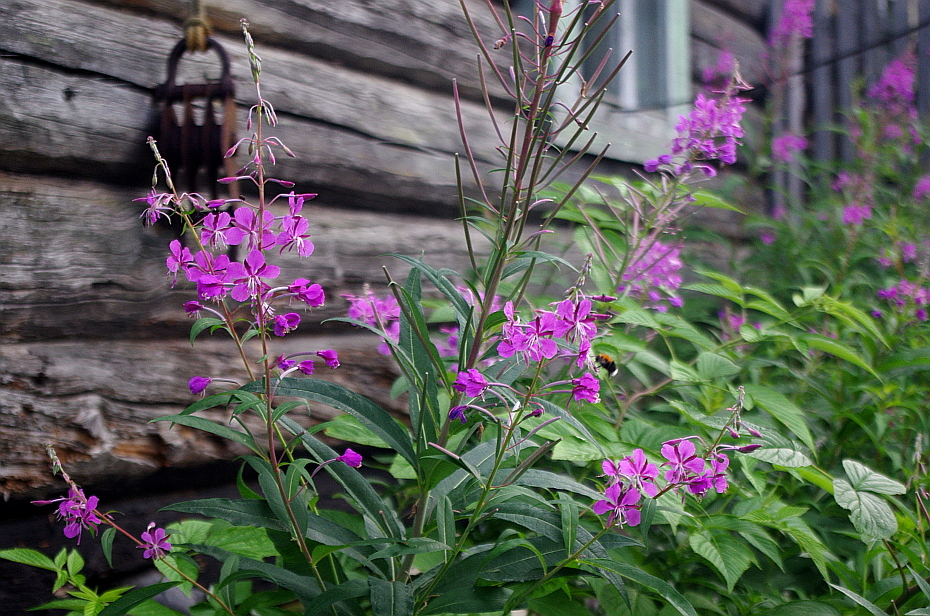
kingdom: Plantae
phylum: Tracheophyta
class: Magnoliopsida
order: Myrtales
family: Onagraceae
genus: Chamaenerion
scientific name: Chamaenerion angustifolium
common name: Fireweed
